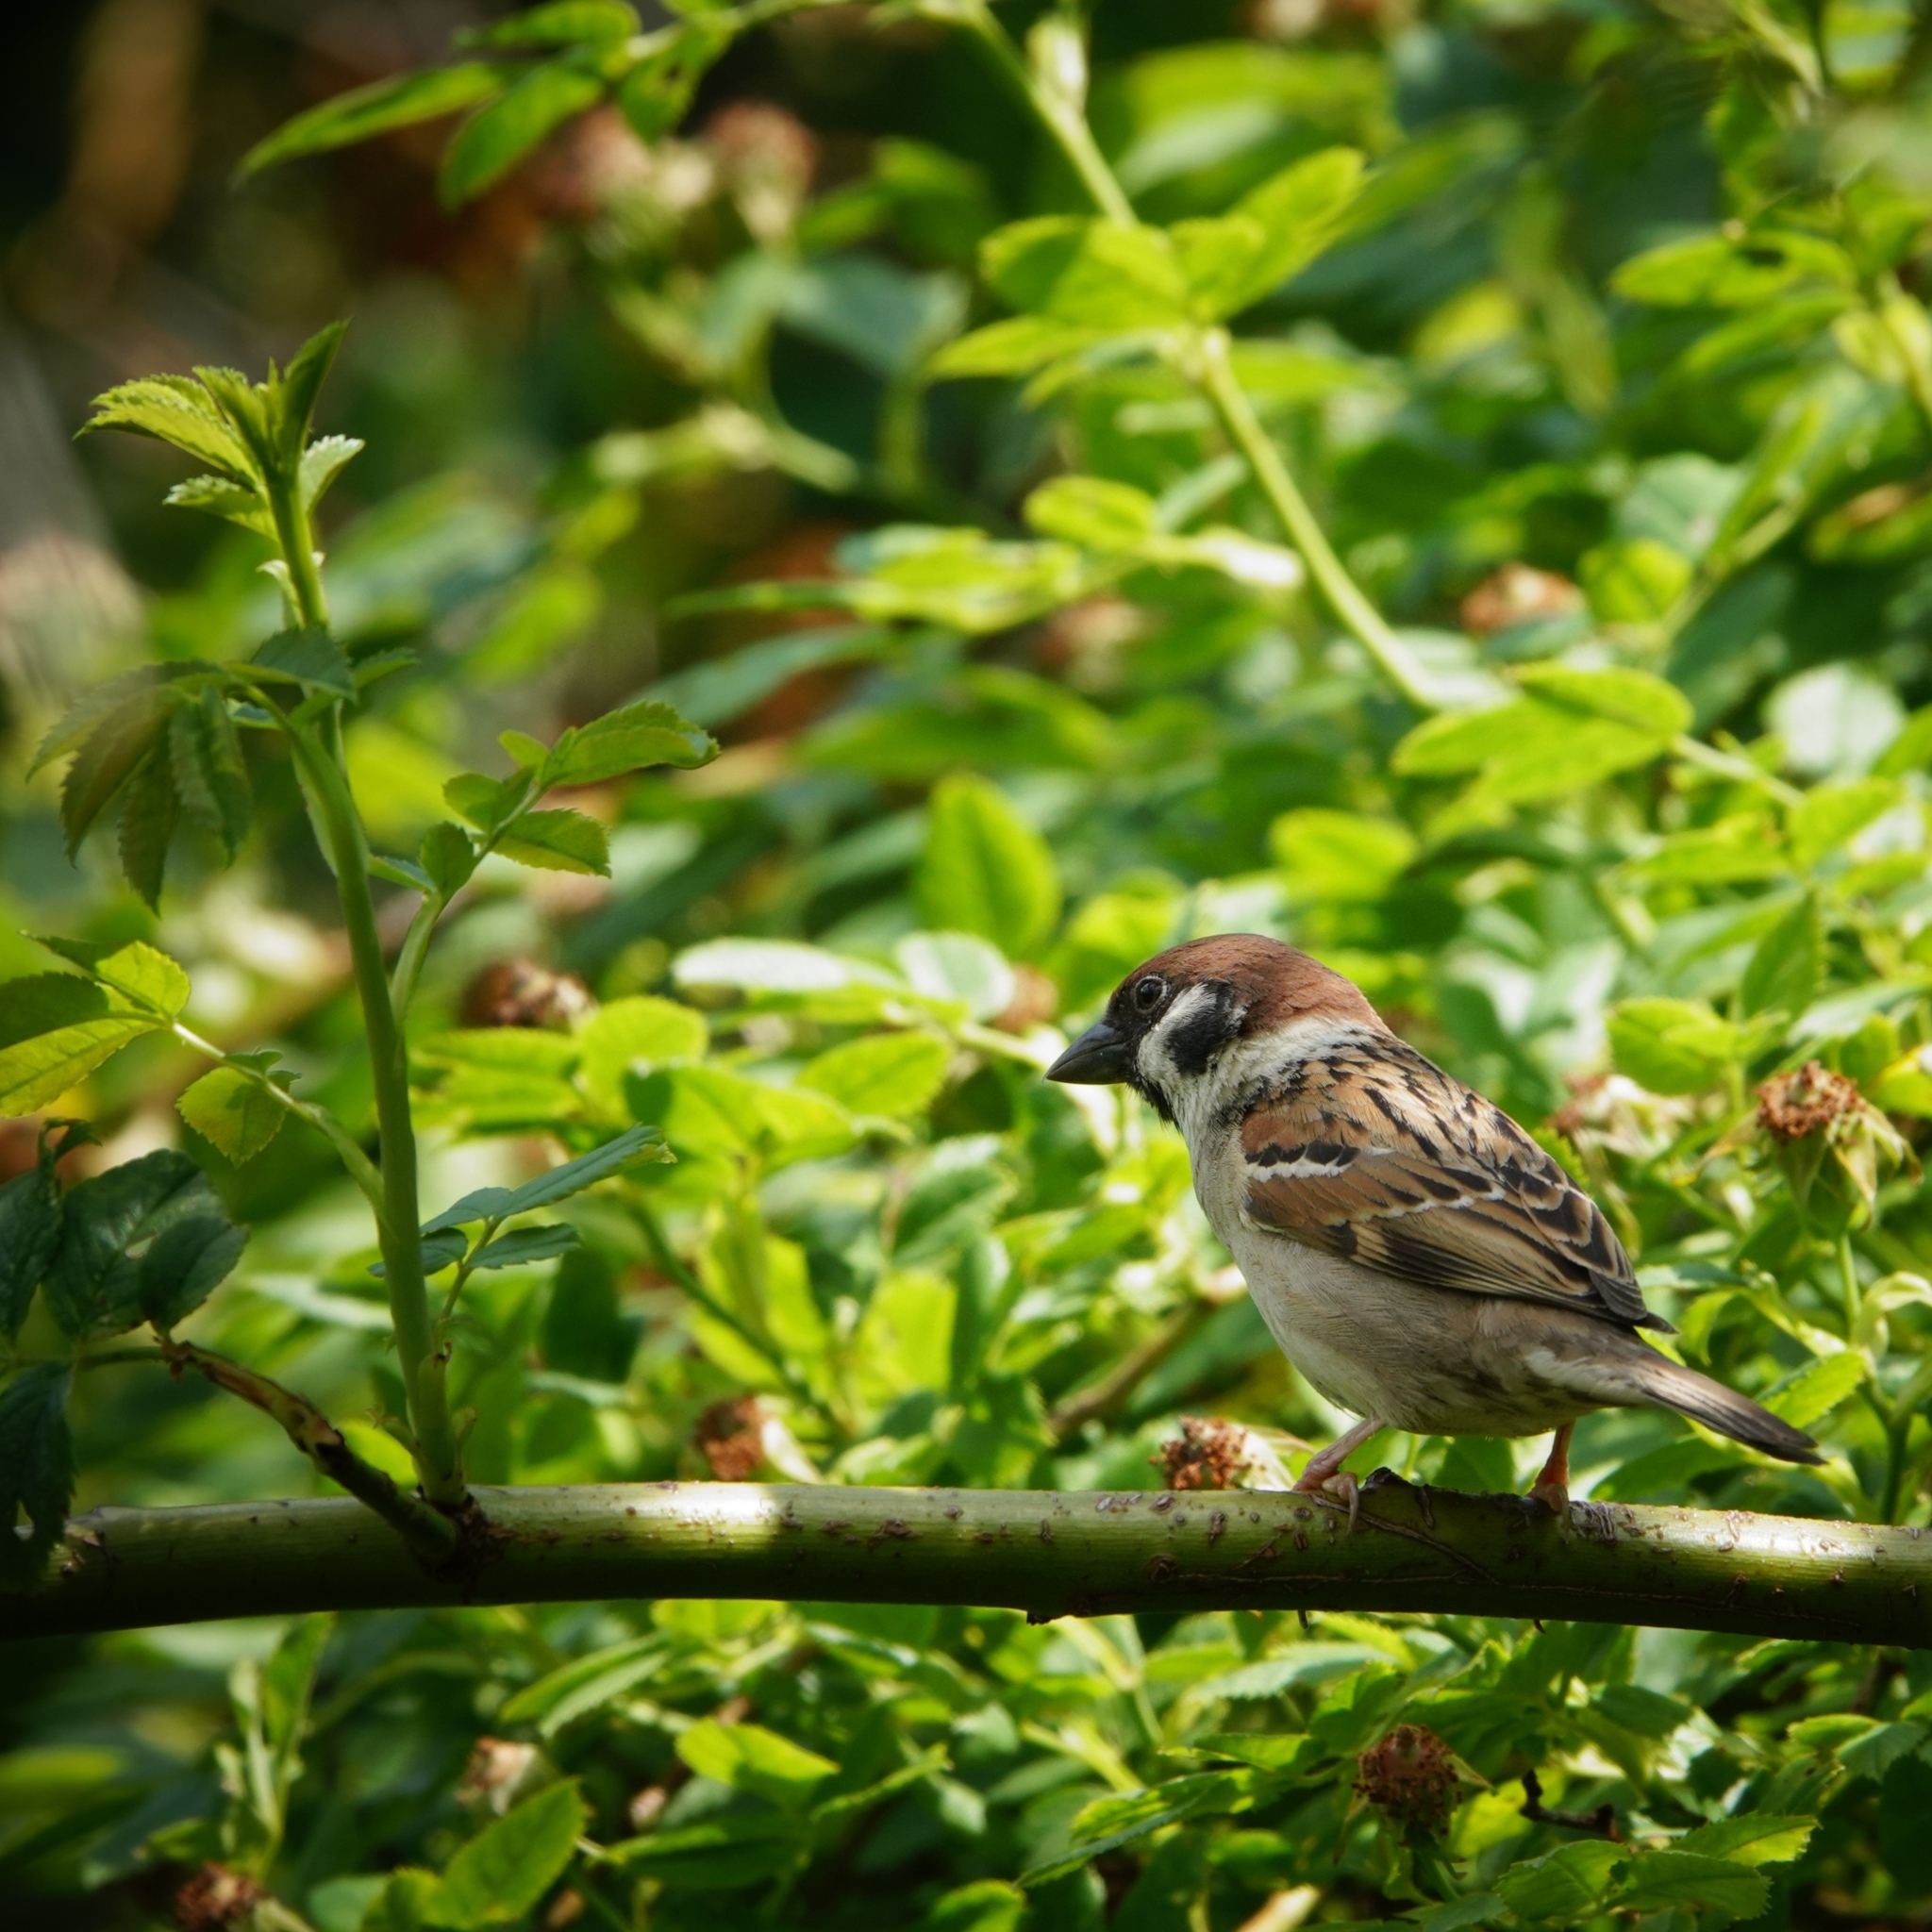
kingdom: Animalia
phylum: Chordata
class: Aves
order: Passeriformes
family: Passeridae
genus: Passer
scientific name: Passer montanus
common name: Eurasian tree sparrow
